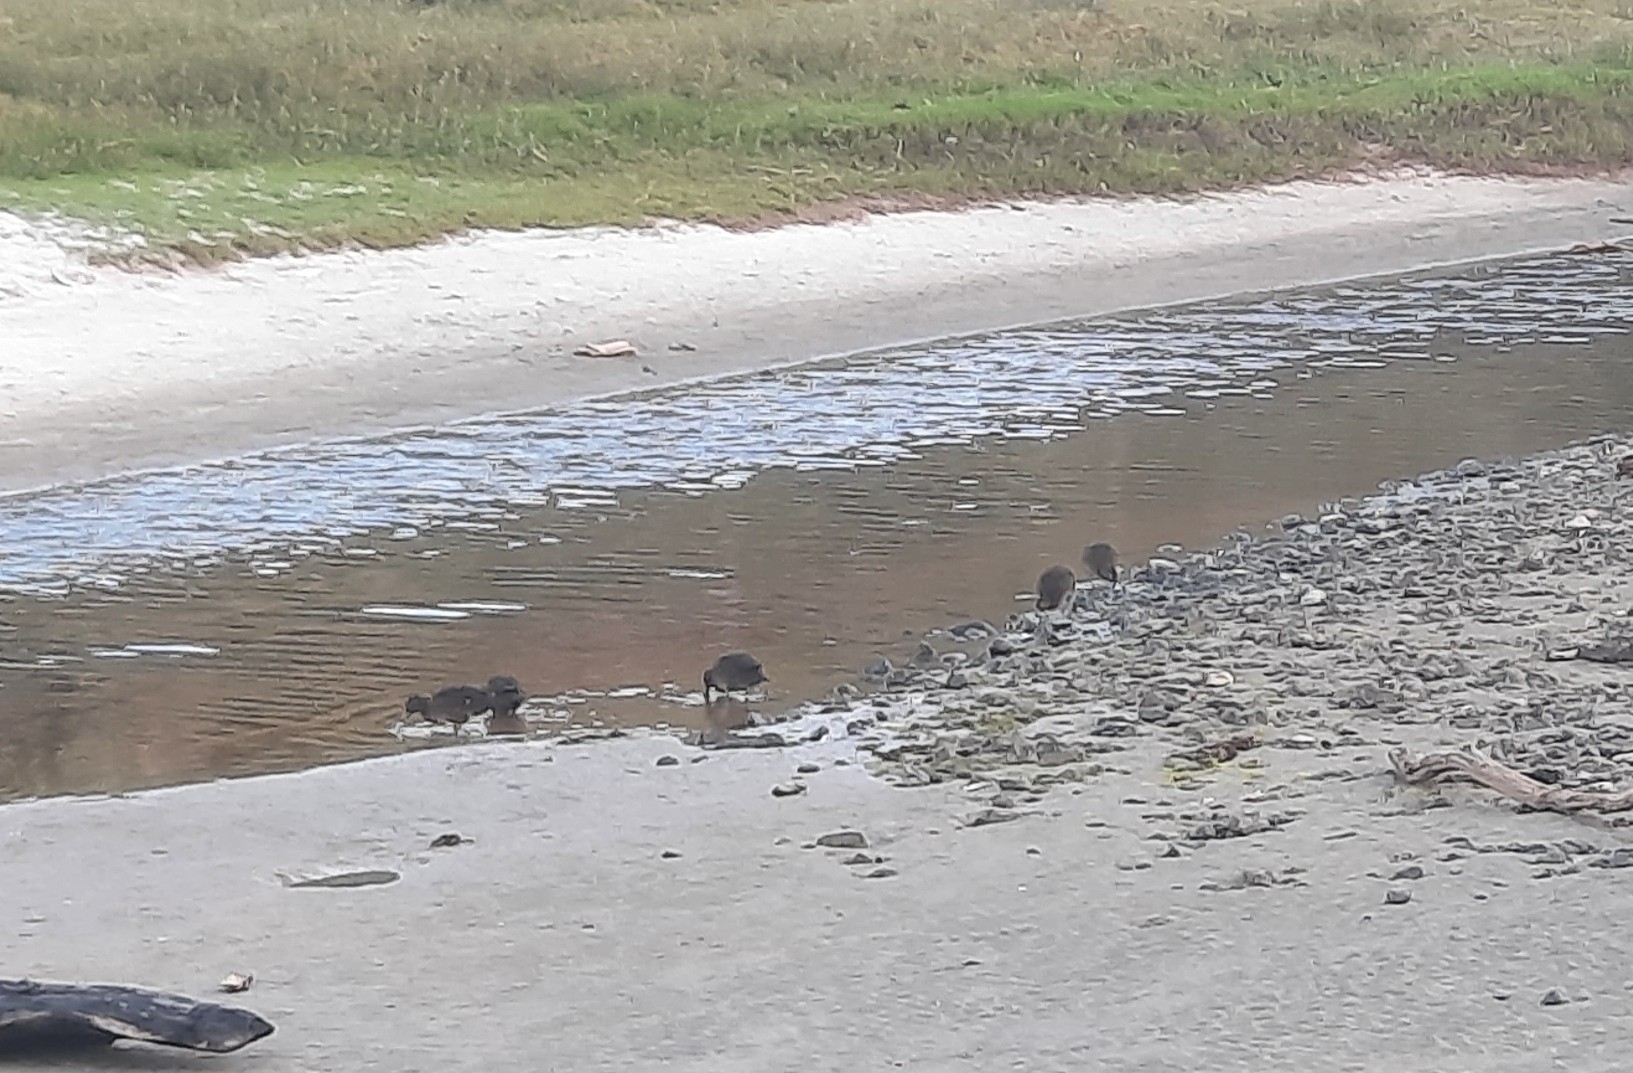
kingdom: Animalia
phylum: Chordata
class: Aves
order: Anseriformes
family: Anatidae
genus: Anas
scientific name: Anas chlorotis
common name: Brown teal
